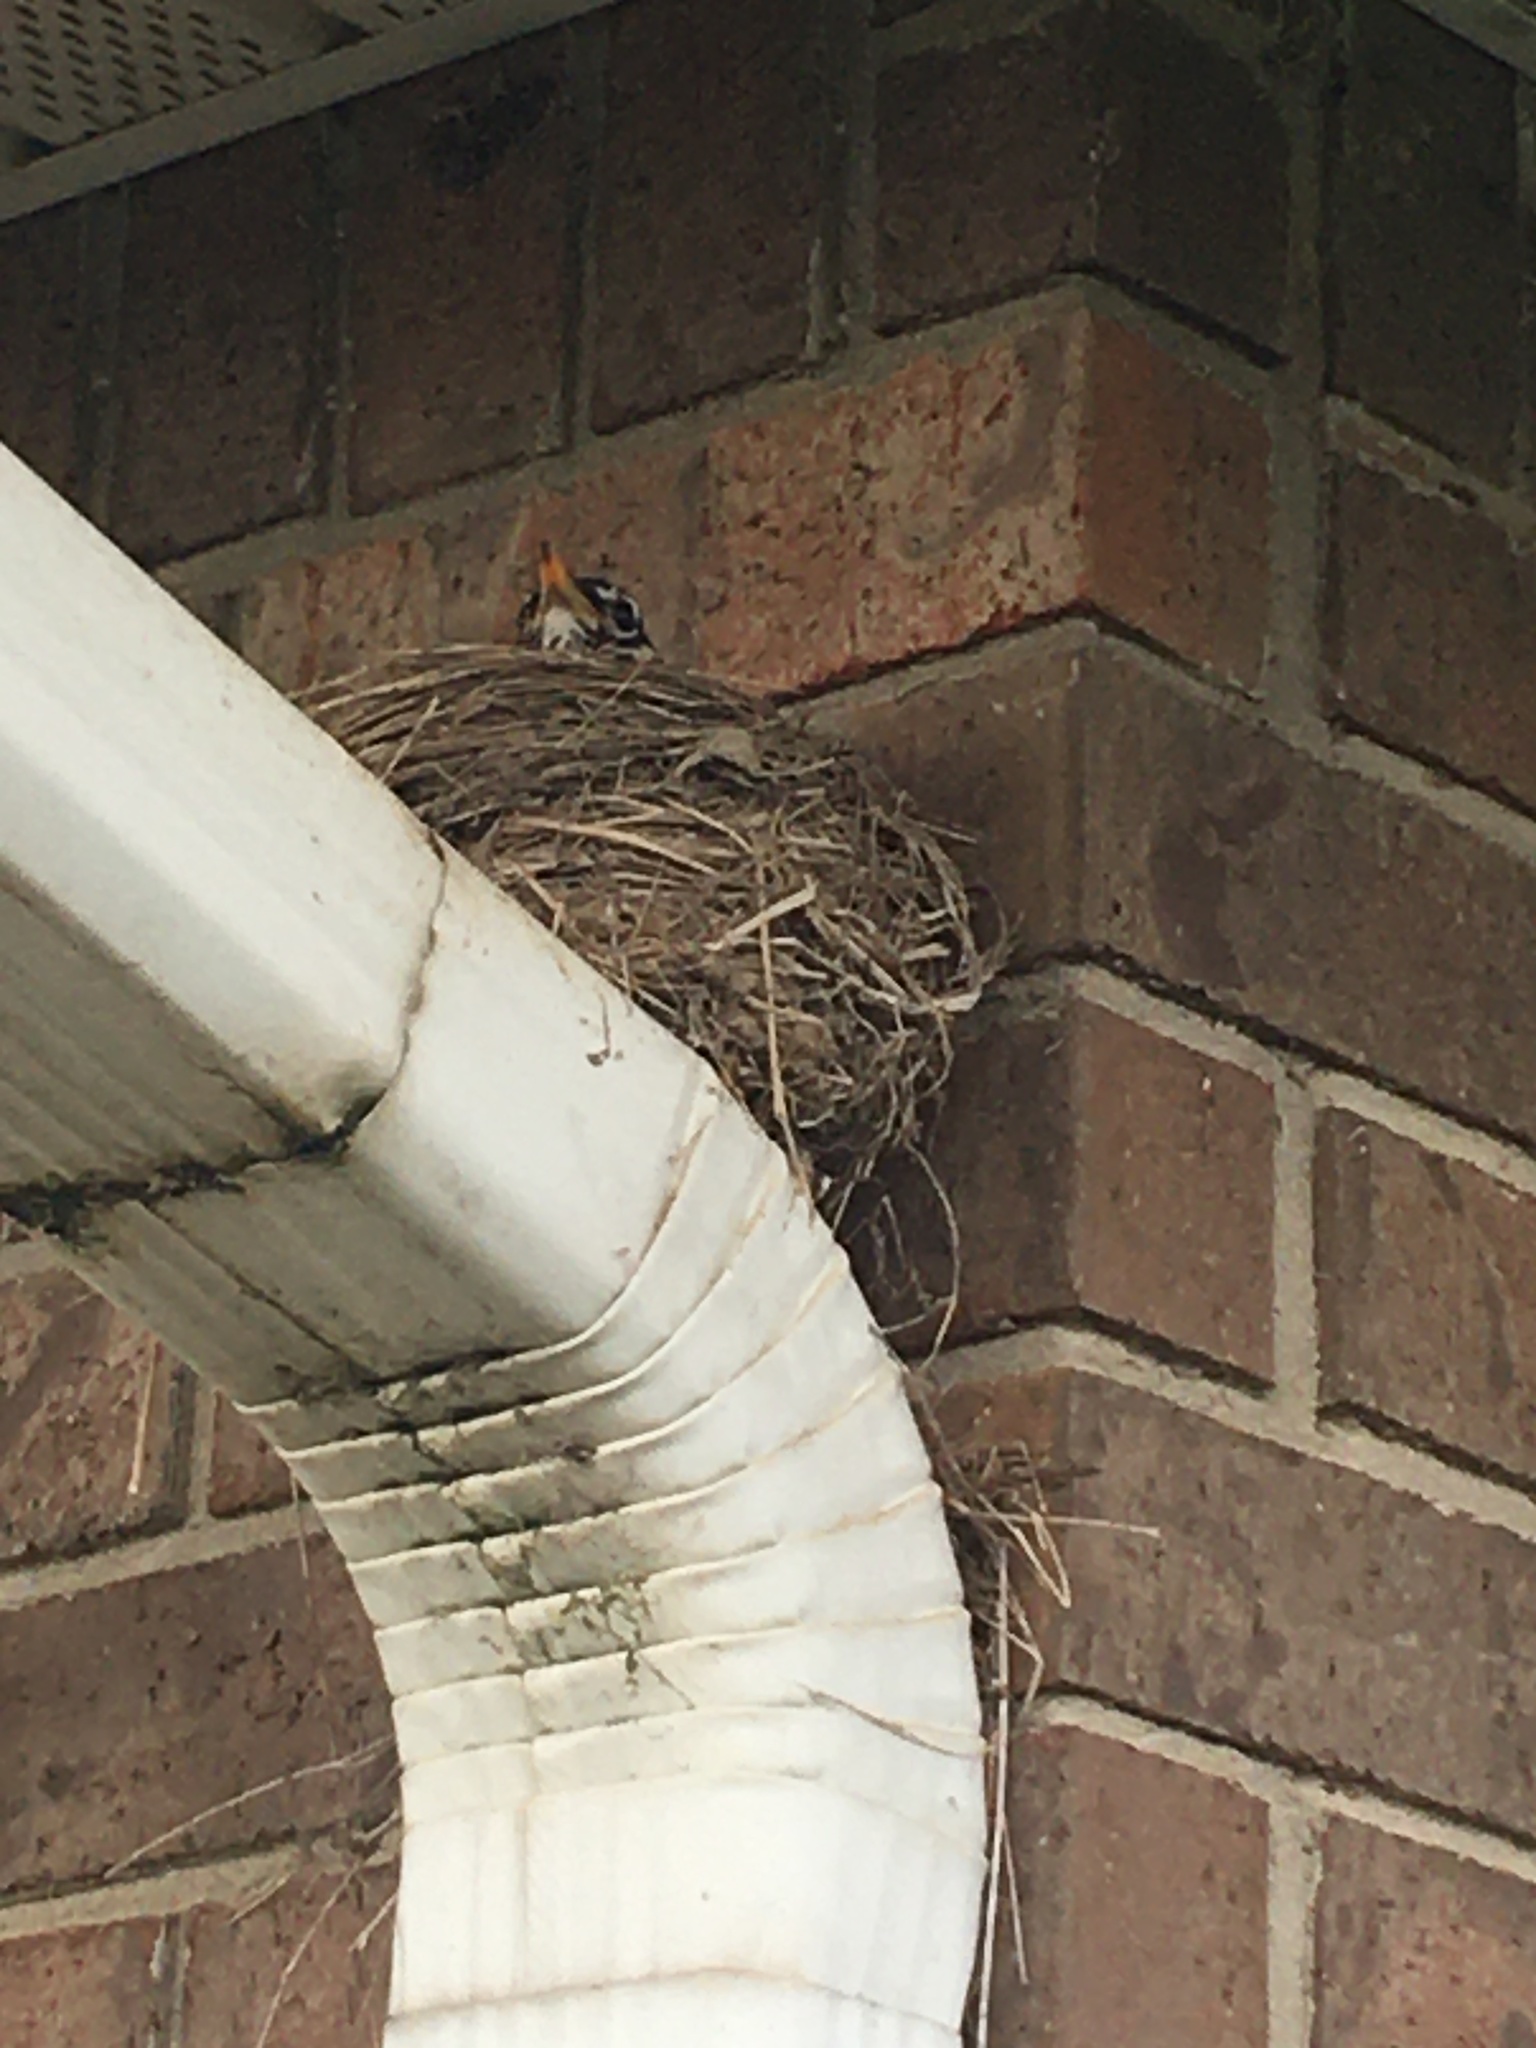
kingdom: Animalia
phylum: Chordata
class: Aves
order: Passeriformes
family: Turdidae
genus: Turdus
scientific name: Turdus migratorius
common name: American robin
